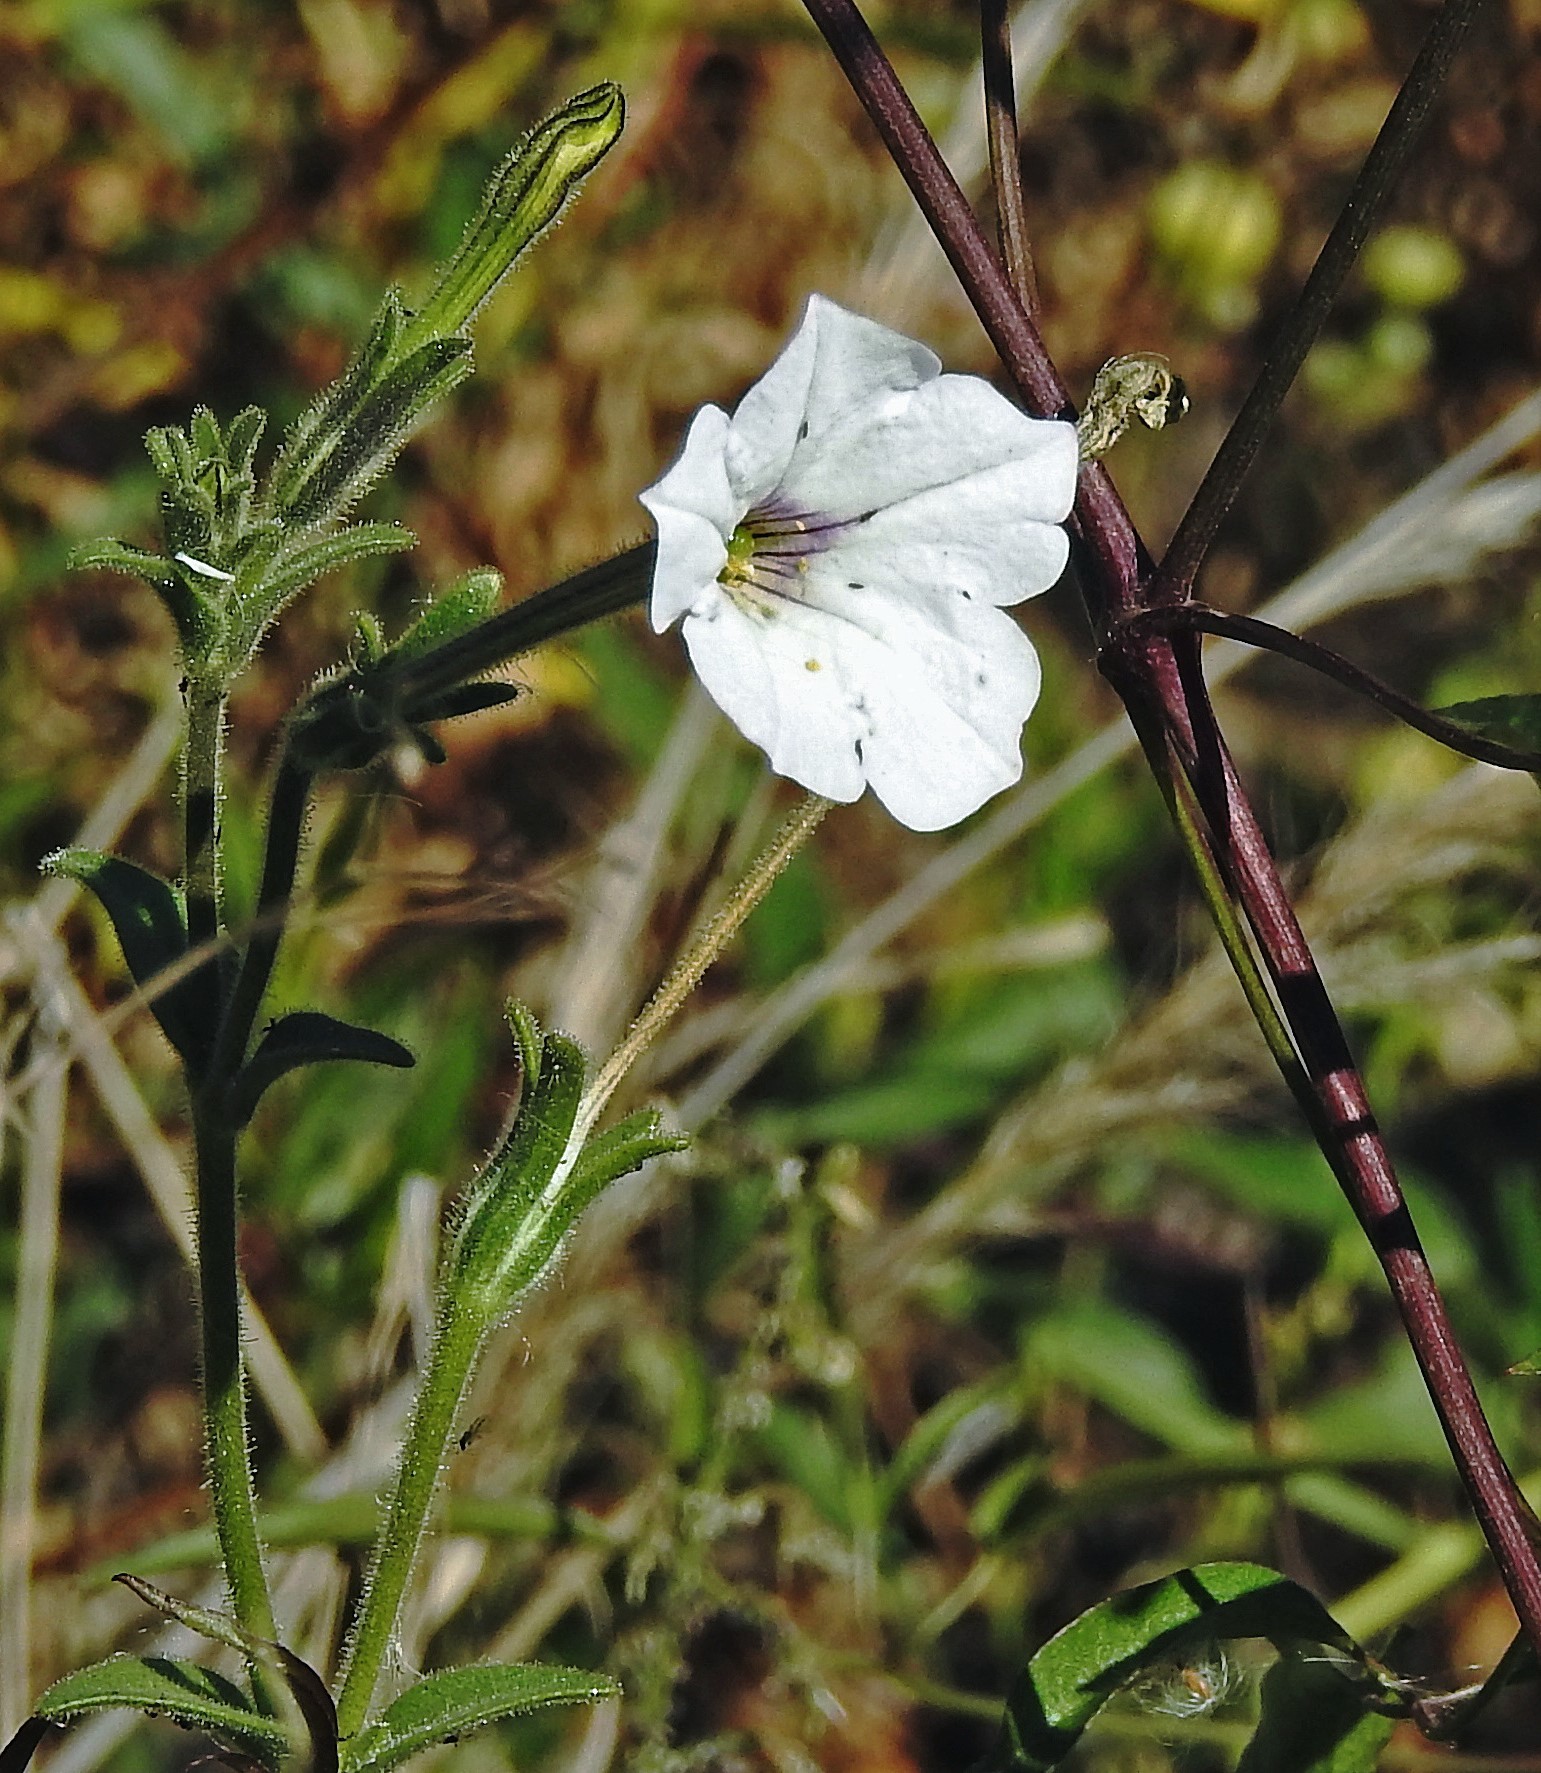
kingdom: Plantae
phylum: Tracheophyta
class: Magnoliopsida
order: Solanales
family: Solanaceae
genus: Petunia
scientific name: Petunia axillaris
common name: Large white petunia
